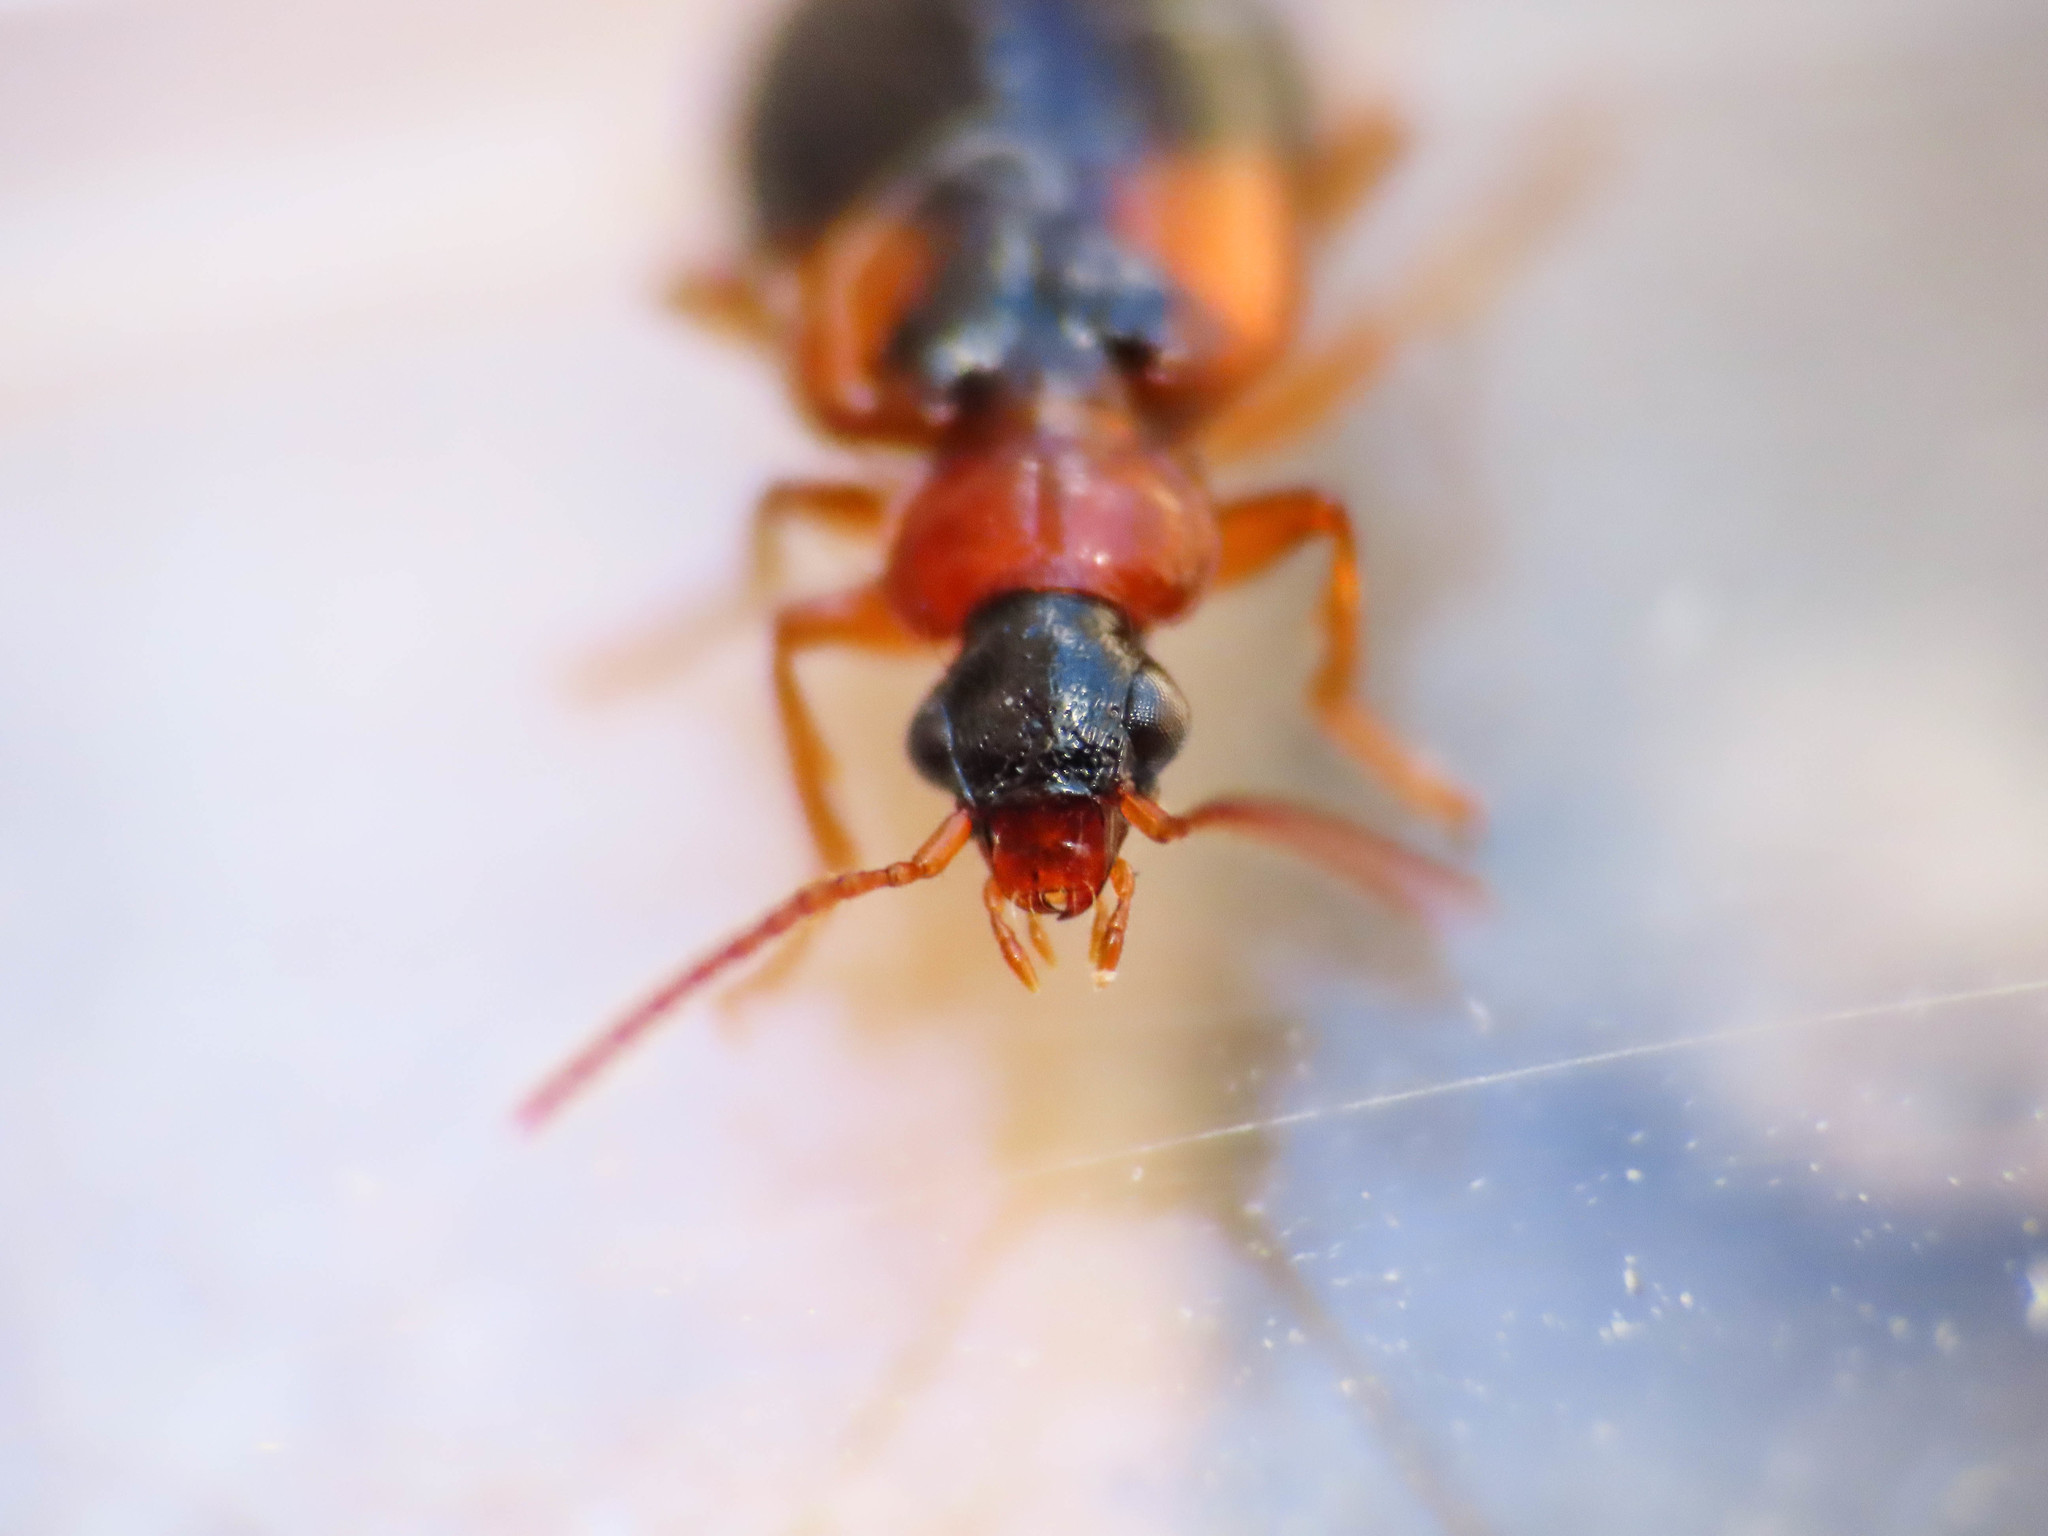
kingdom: Animalia
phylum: Arthropoda
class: Insecta
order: Coleoptera
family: Carabidae
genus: Lebia
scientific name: Lebia humeralis
